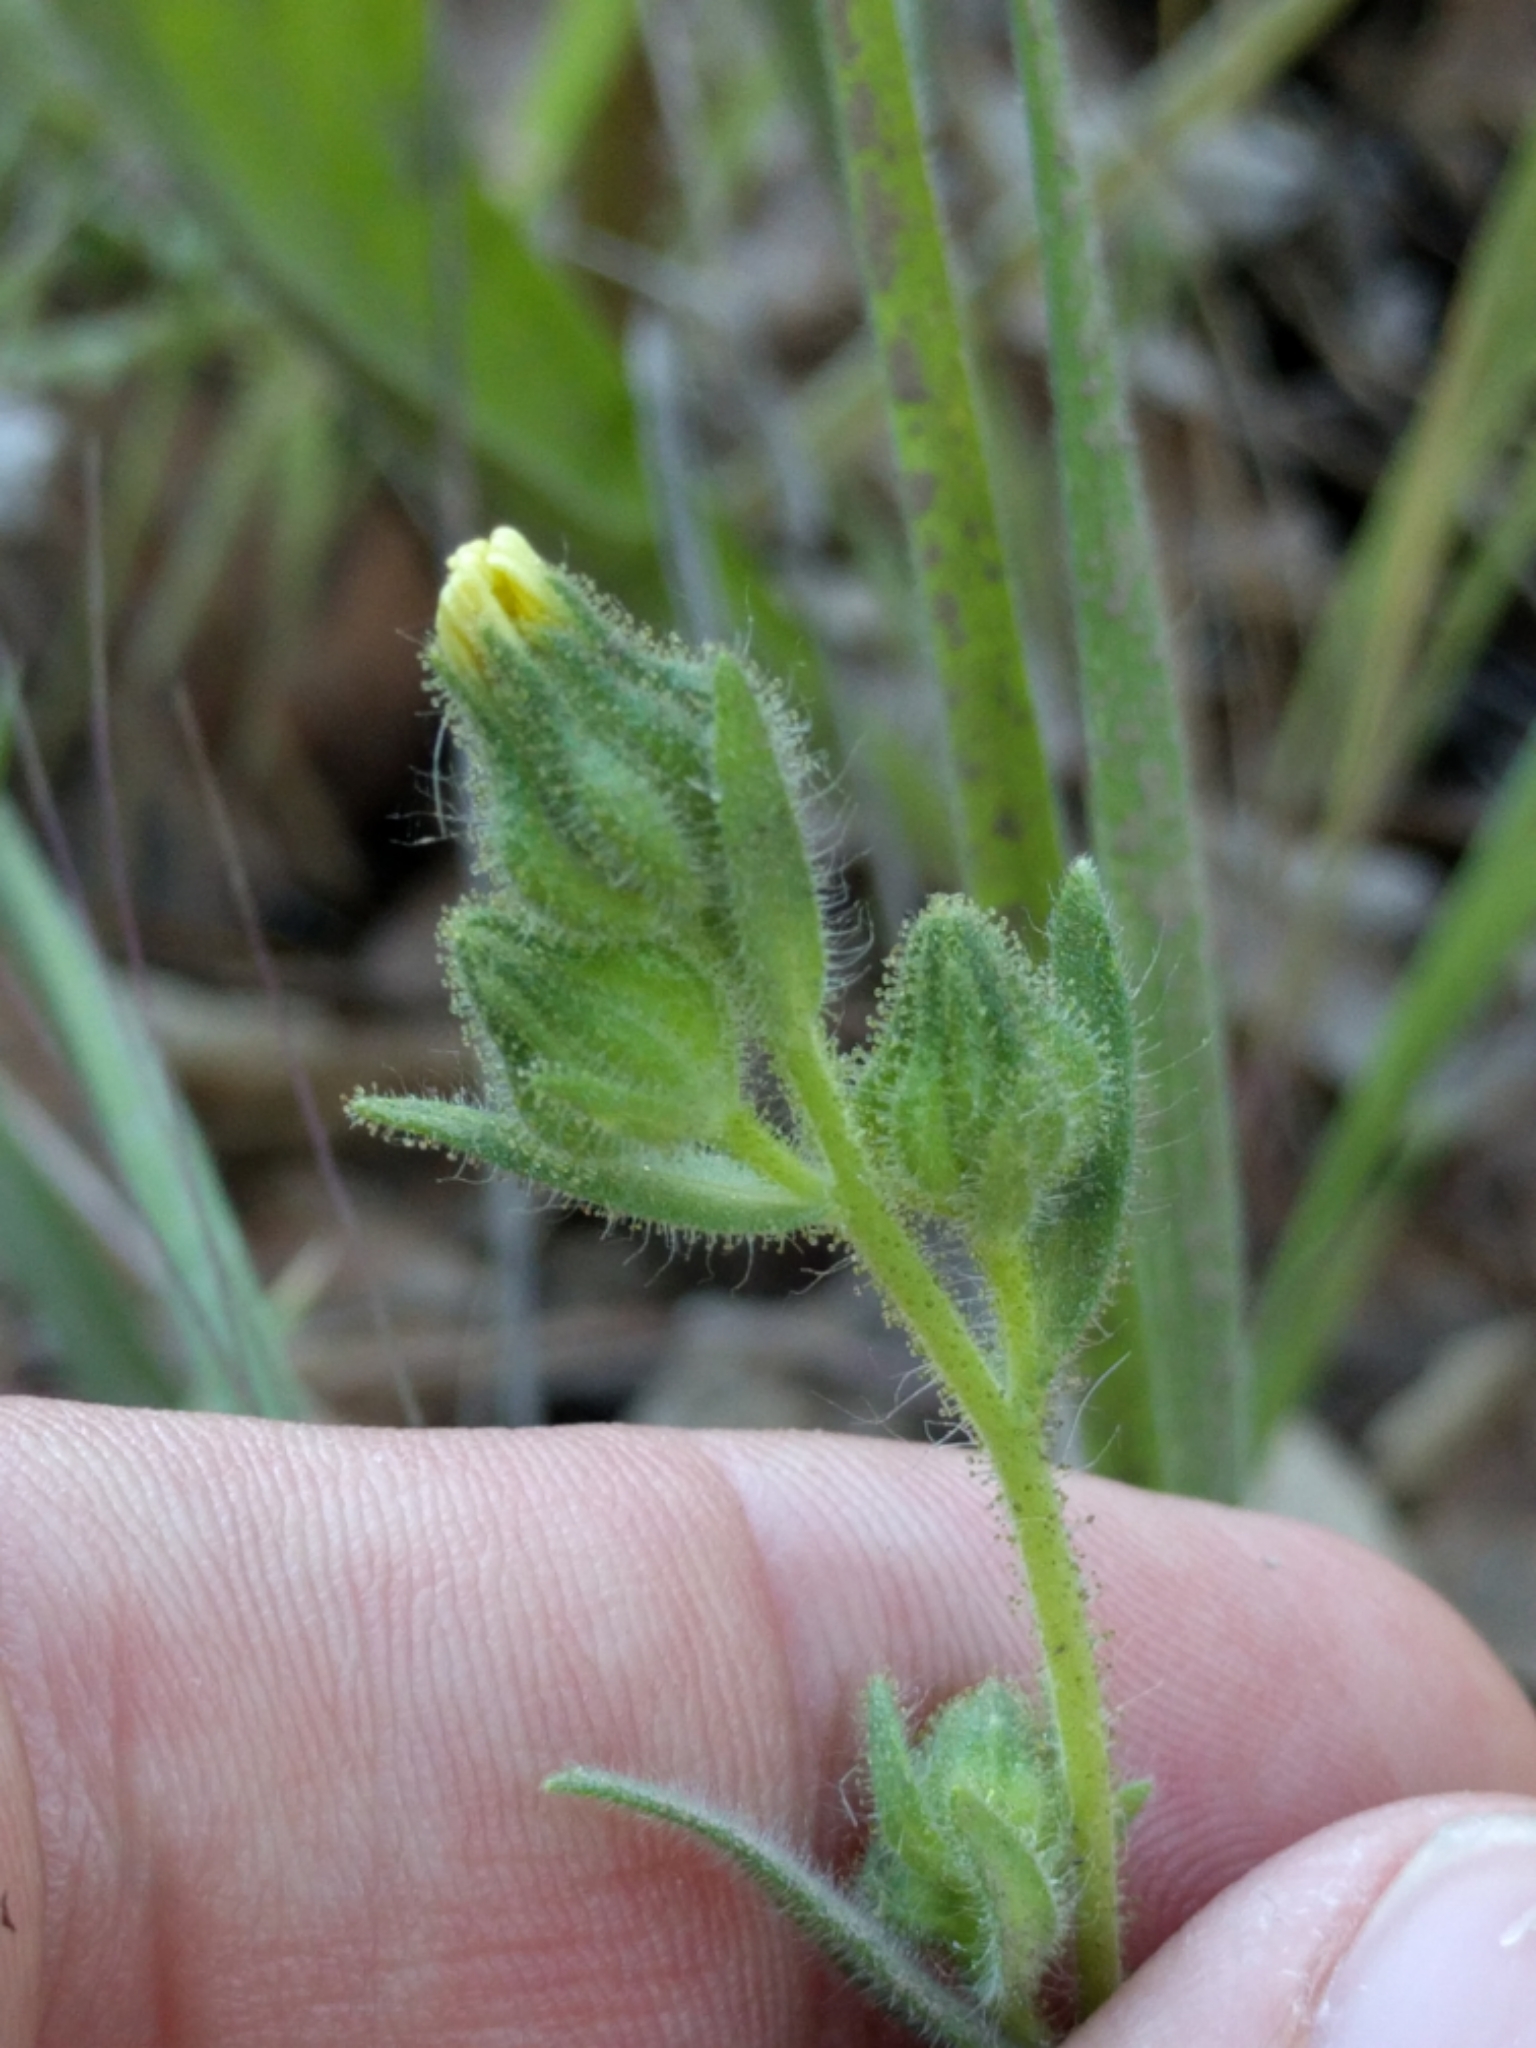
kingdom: Plantae
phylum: Tracheophyta
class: Magnoliopsida
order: Asterales
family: Asteraceae
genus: Madia
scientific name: Madia gracilis
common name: Grassy tarweed
